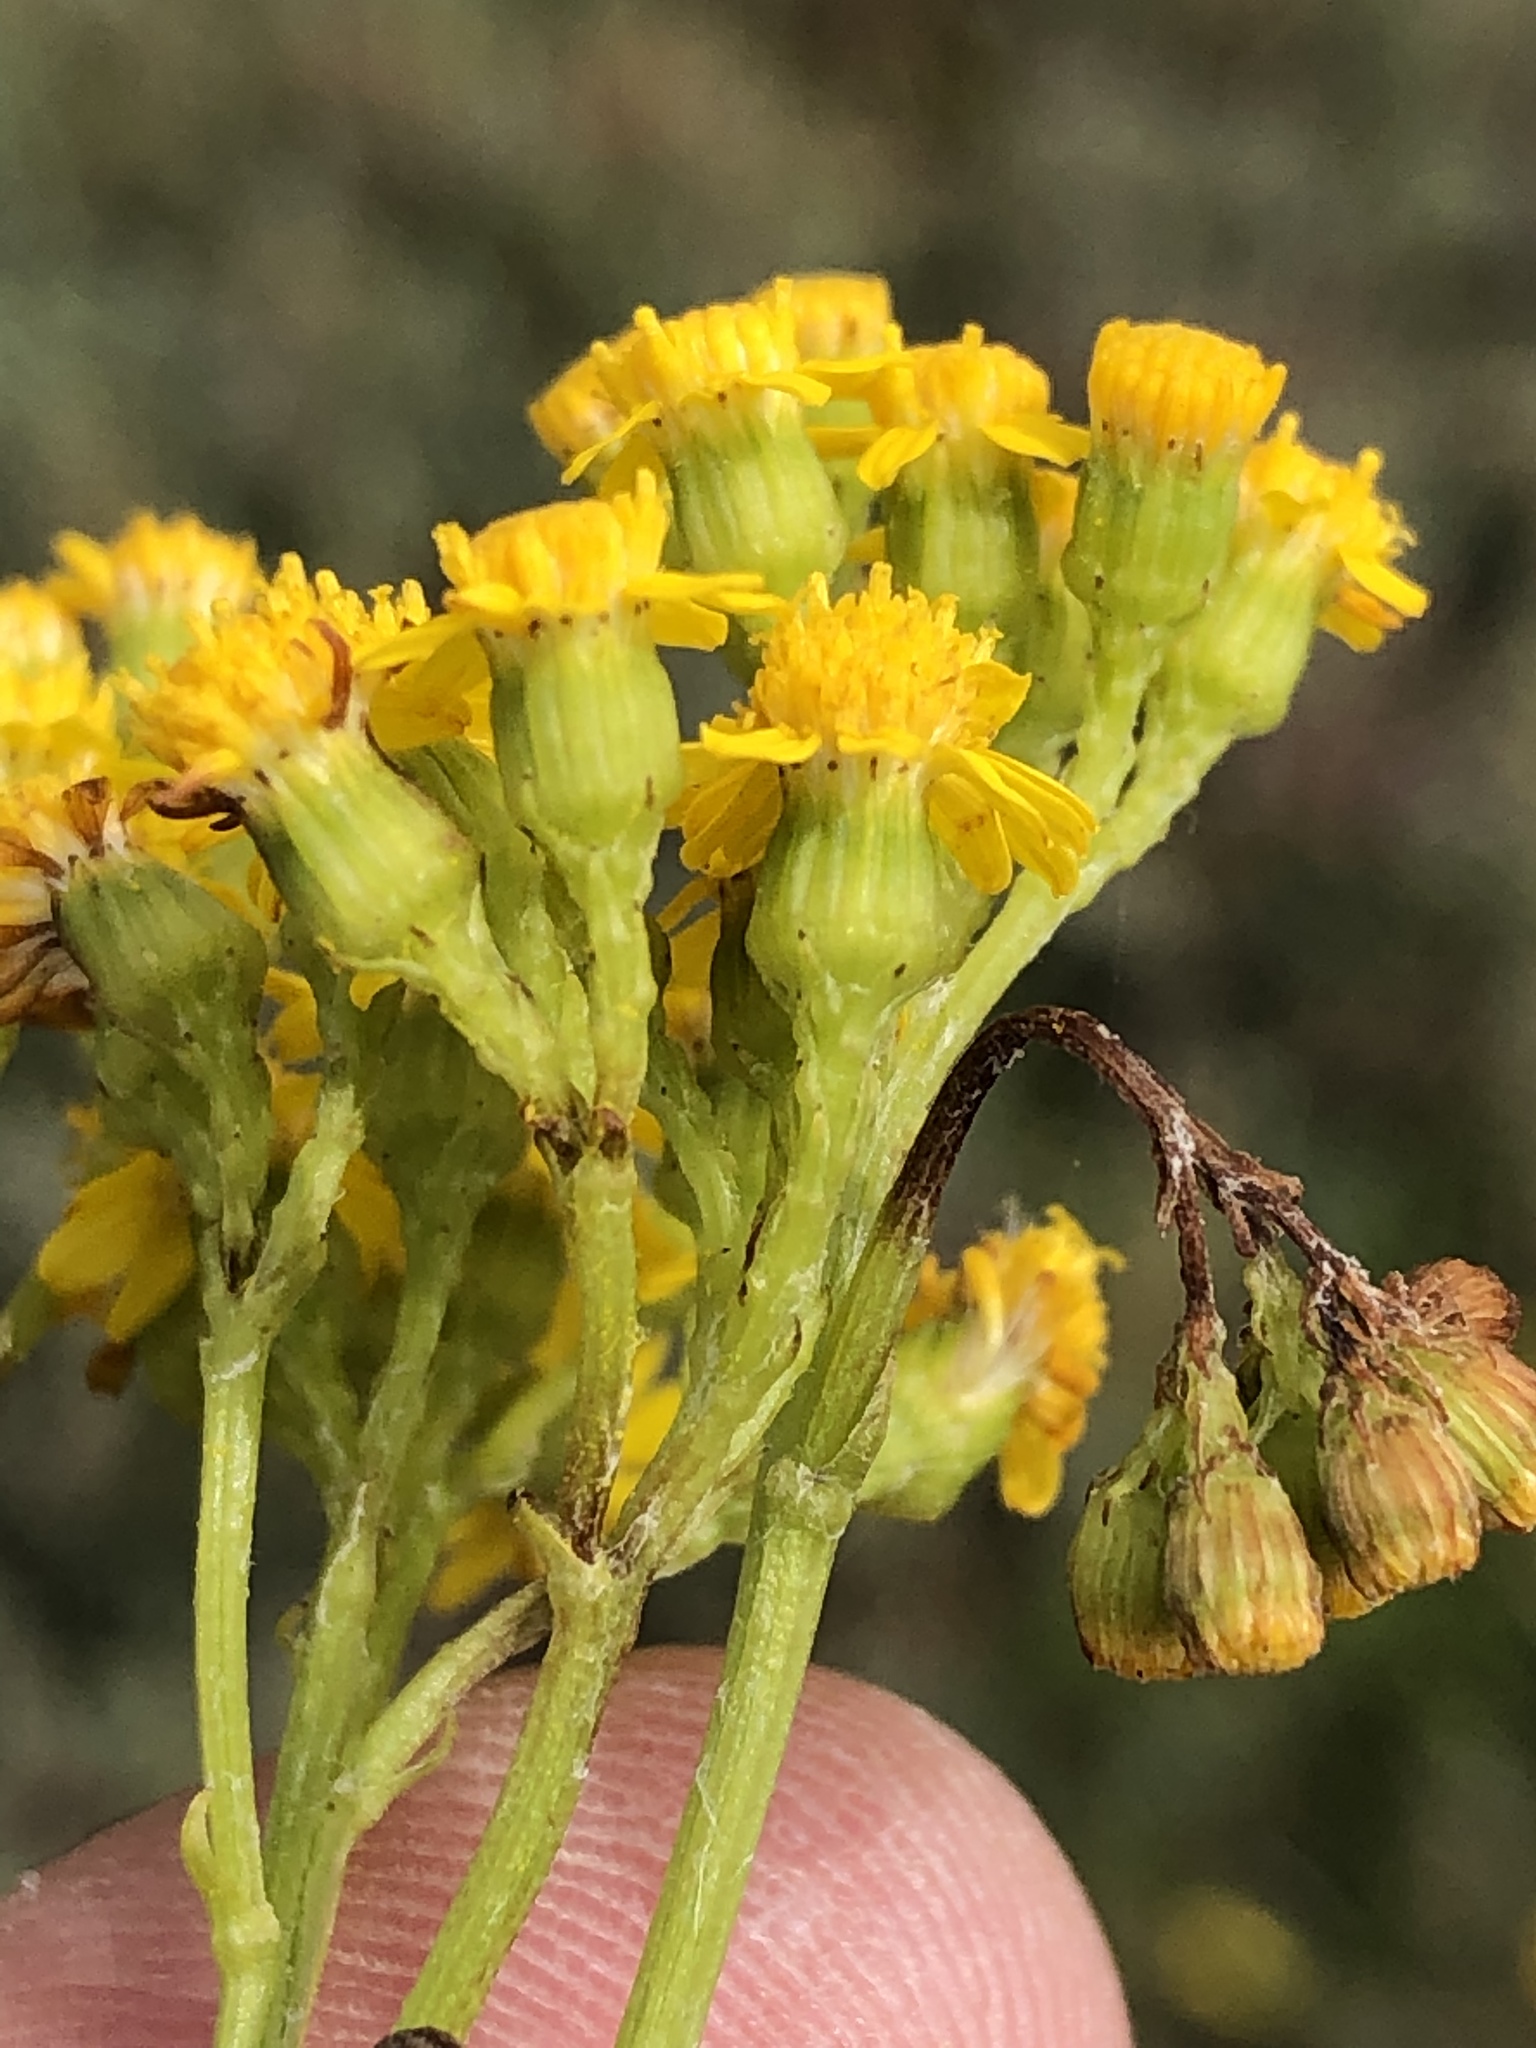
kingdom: Plantae
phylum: Tracheophyta
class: Magnoliopsida
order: Asterales
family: Asteraceae
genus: Senecio
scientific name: Senecio burchellii
